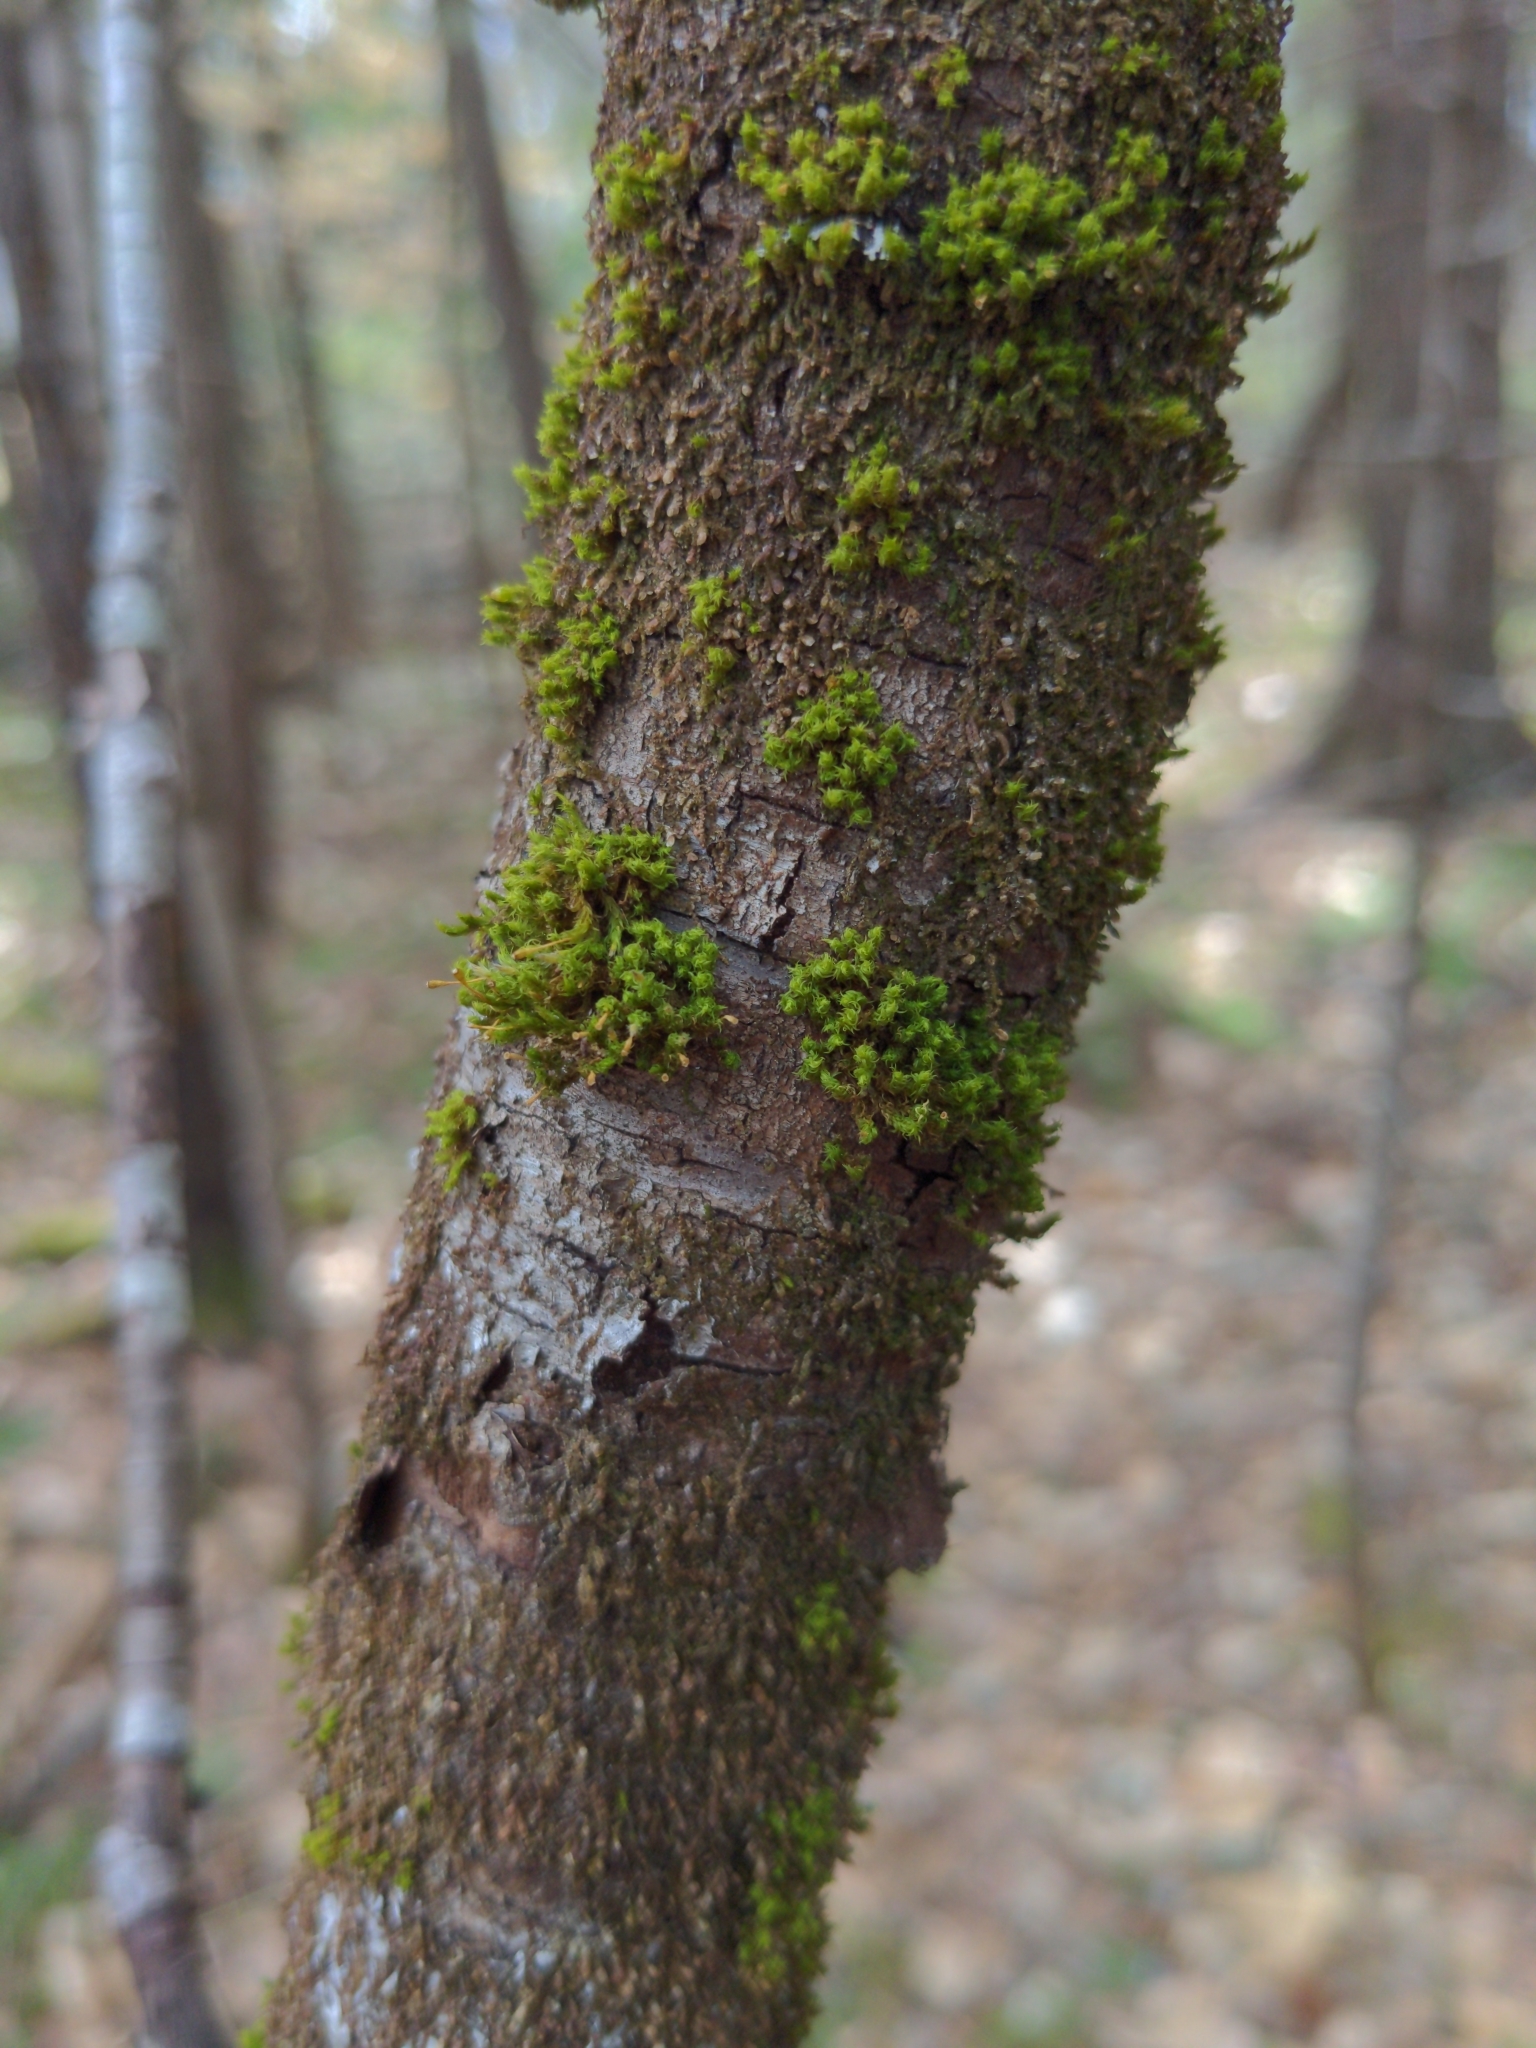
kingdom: Plantae
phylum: Bryophyta
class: Bryopsida
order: Orthotrichales
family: Orthotrichaceae
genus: Ulota
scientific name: Ulota crispa
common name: Crisped pincushion moss
